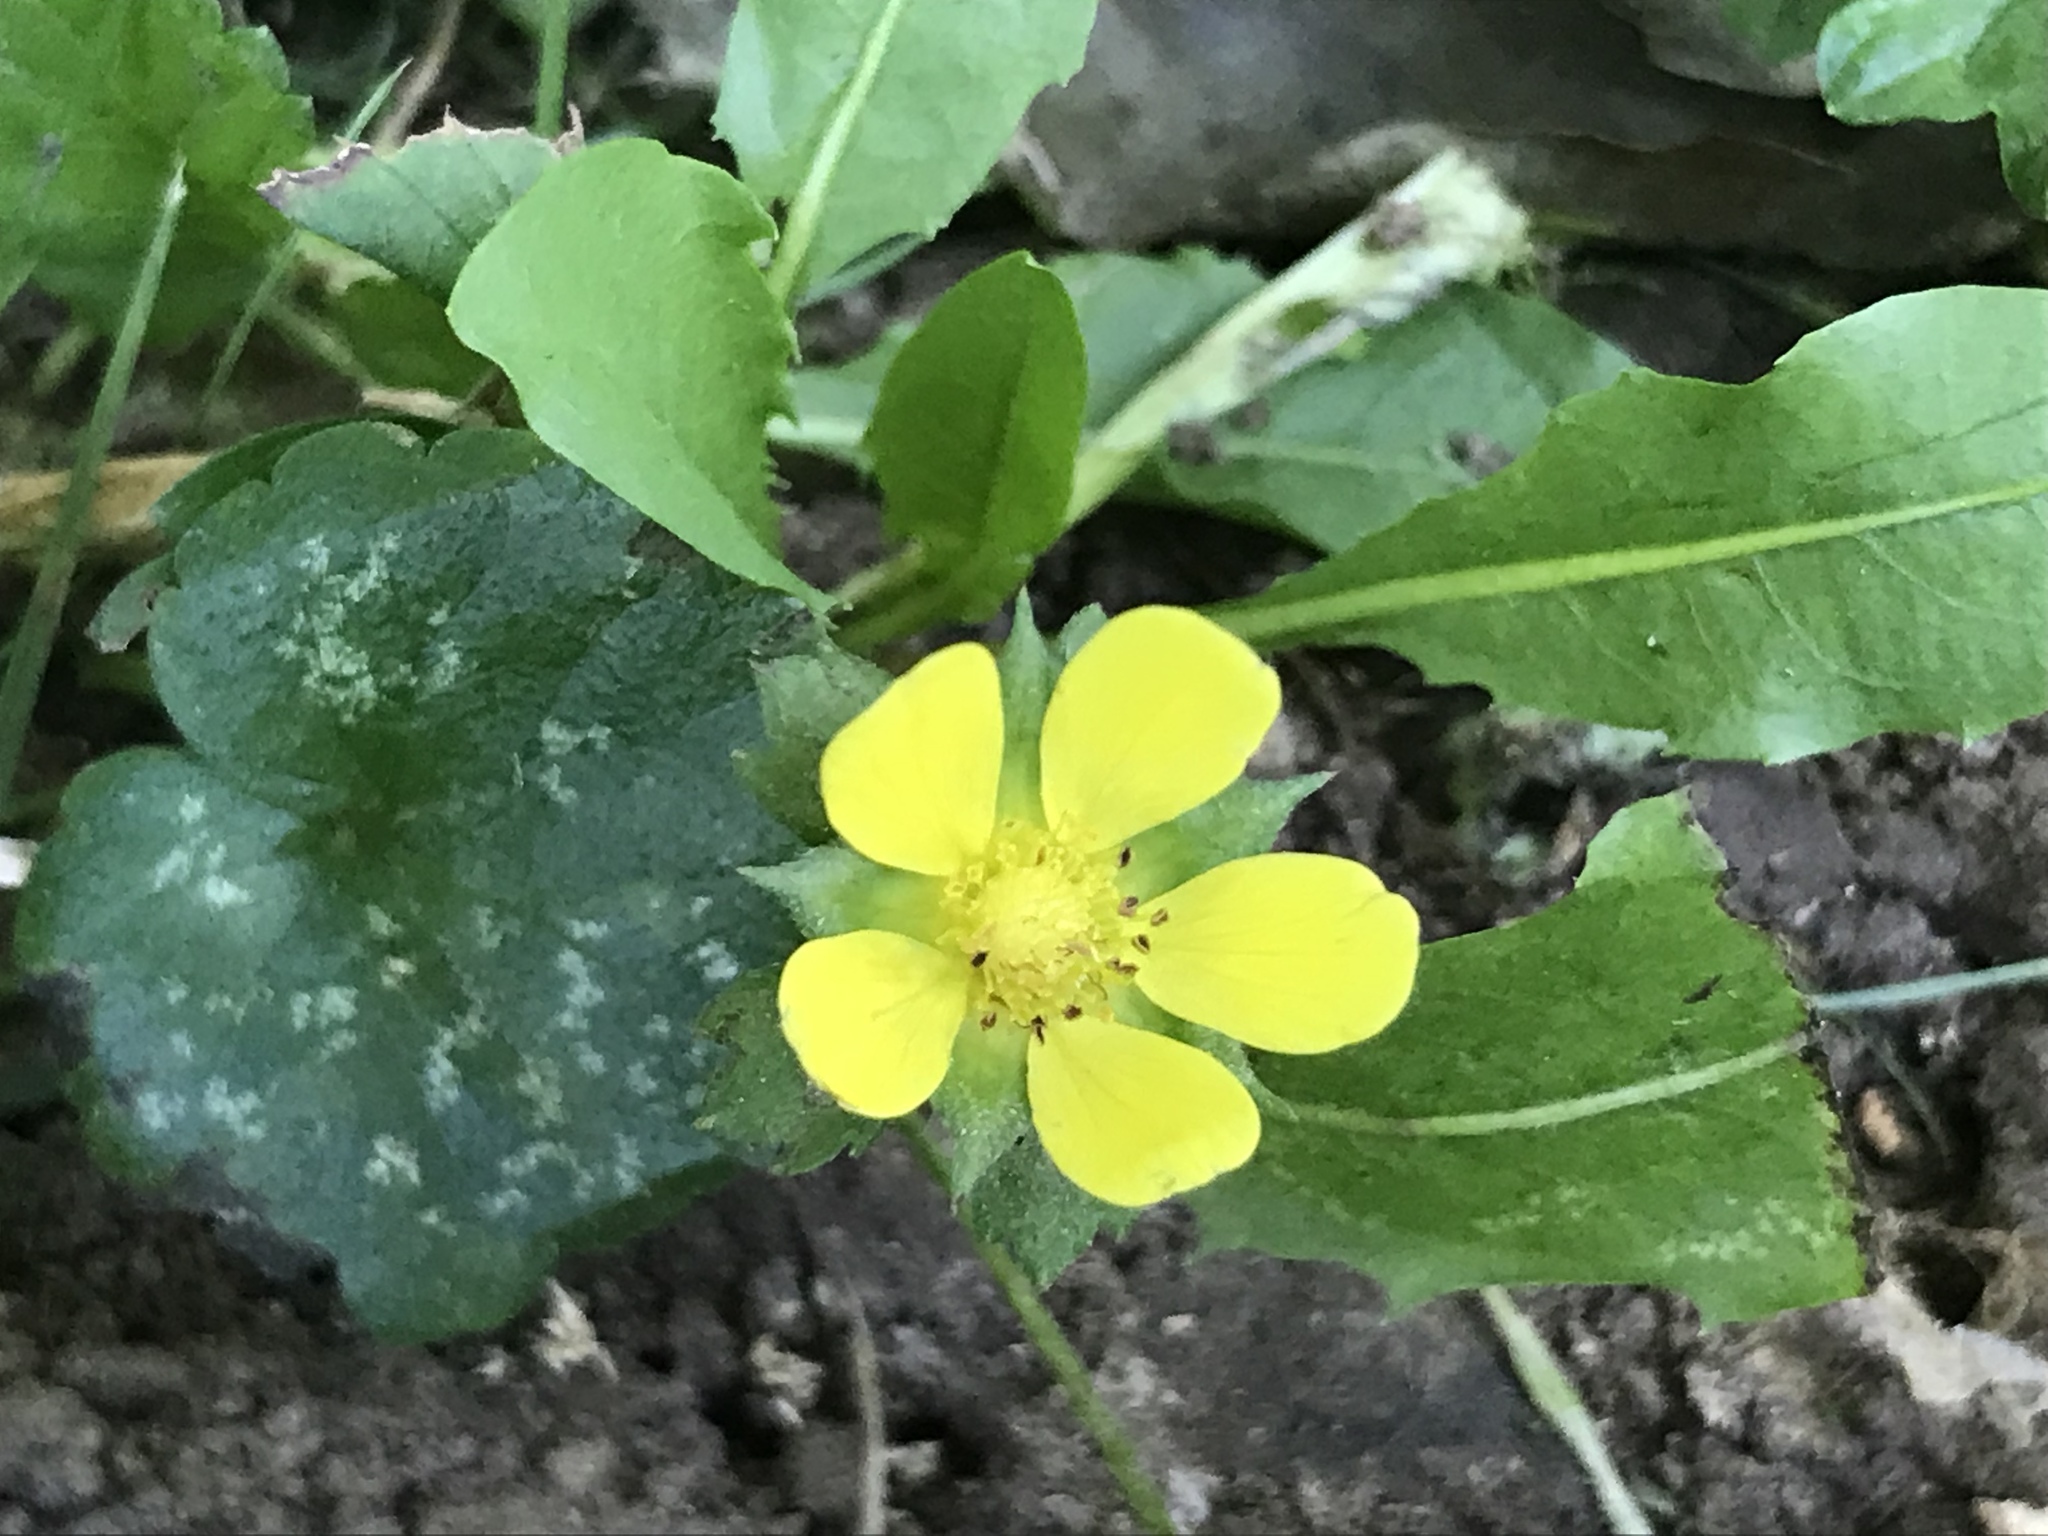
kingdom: Plantae
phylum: Tracheophyta
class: Magnoliopsida
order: Rosales
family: Rosaceae
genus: Potentilla
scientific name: Potentilla indica
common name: Yellow-flowered strawberry
